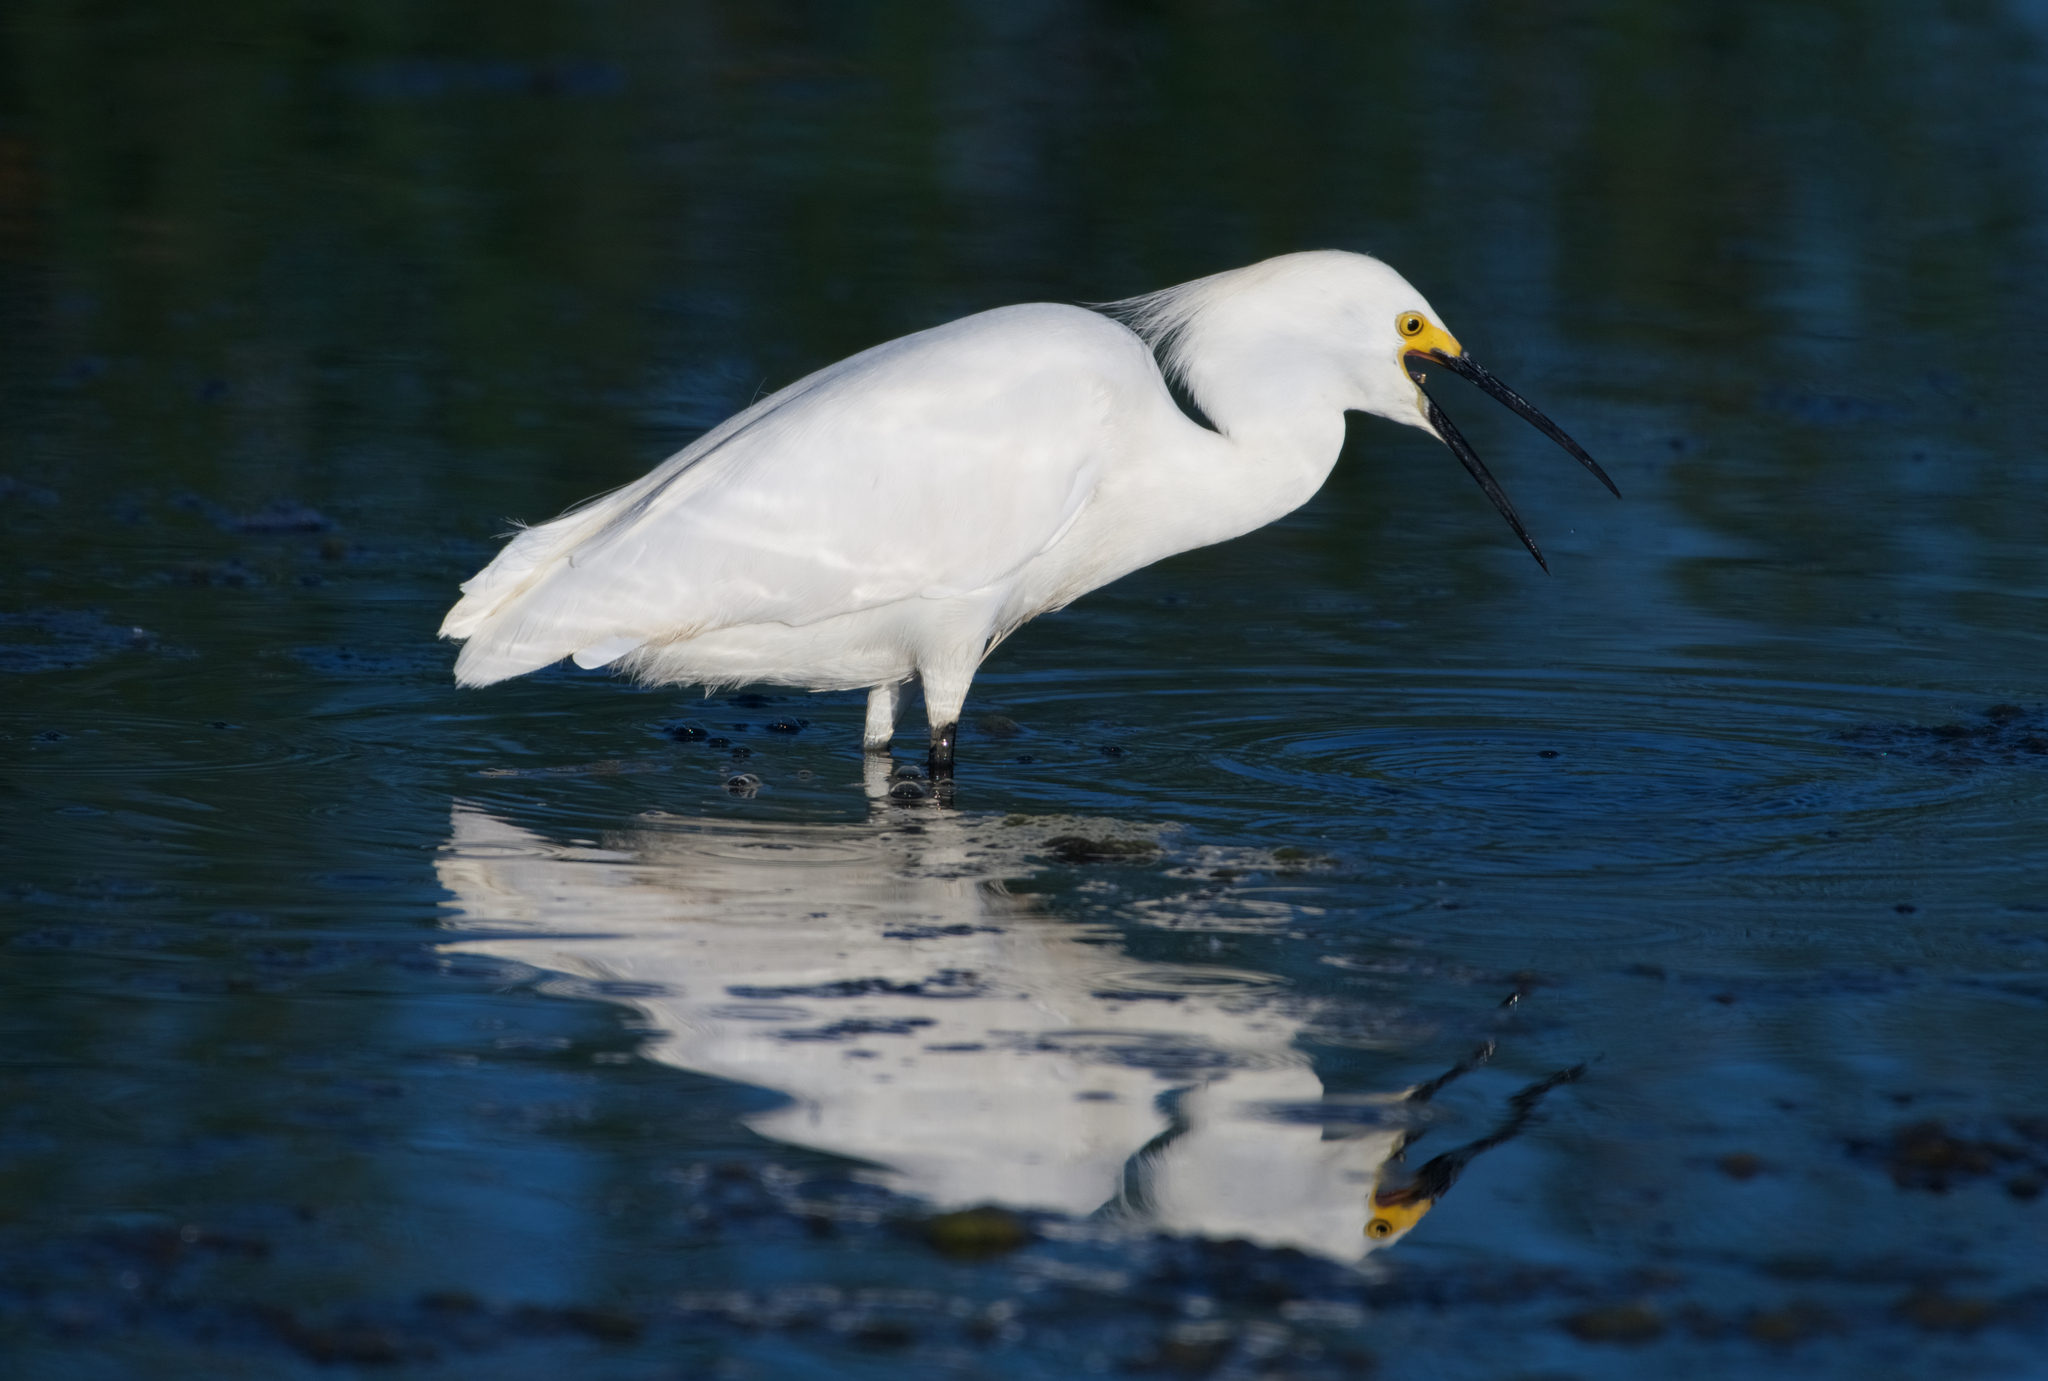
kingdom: Animalia
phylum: Chordata
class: Aves
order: Pelecaniformes
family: Ardeidae
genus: Egretta
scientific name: Egretta thula
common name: Snowy egret
